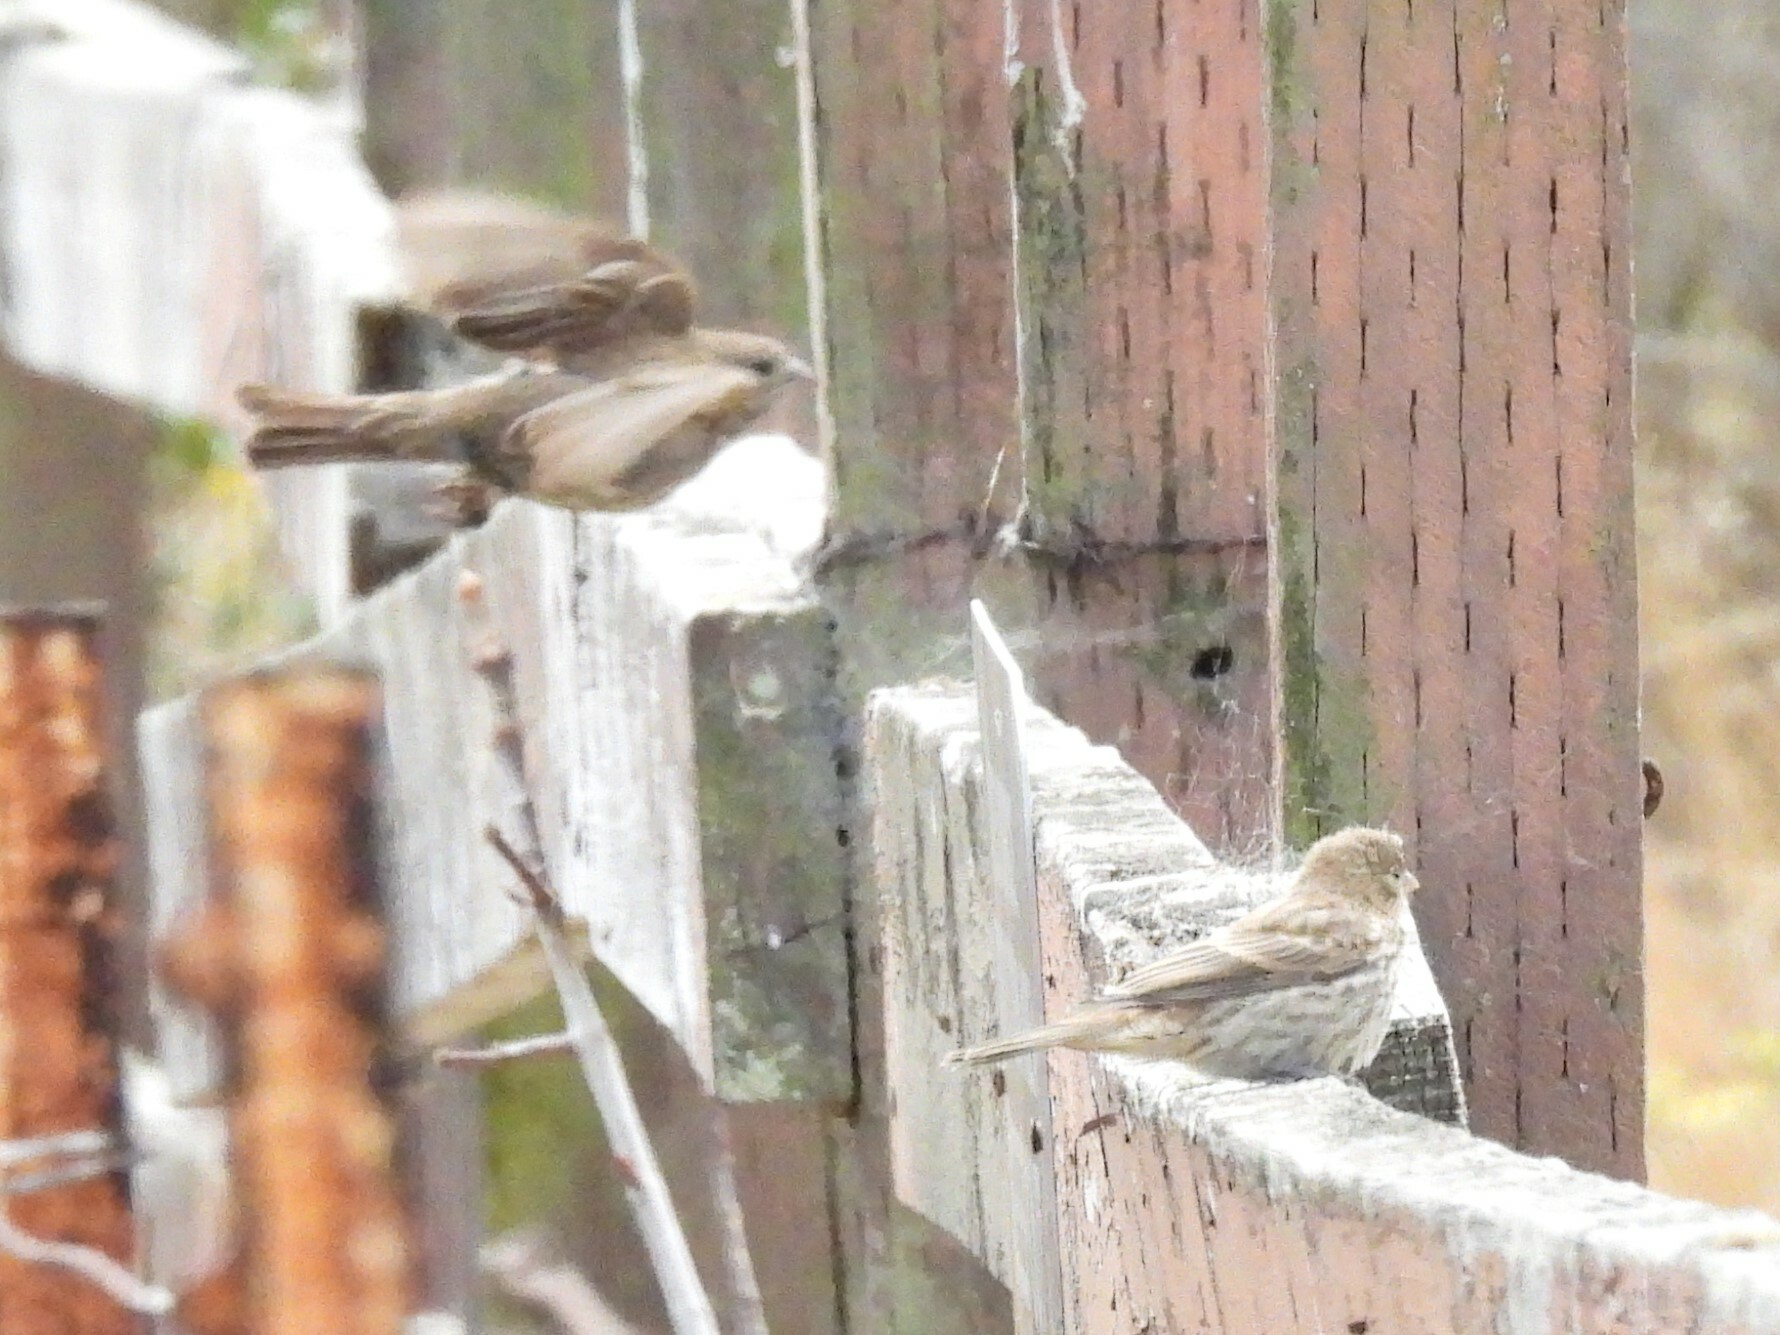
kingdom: Animalia
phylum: Chordata
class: Aves
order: Passeriformes
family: Fringillidae
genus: Haemorhous
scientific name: Haemorhous mexicanus
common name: House finch
